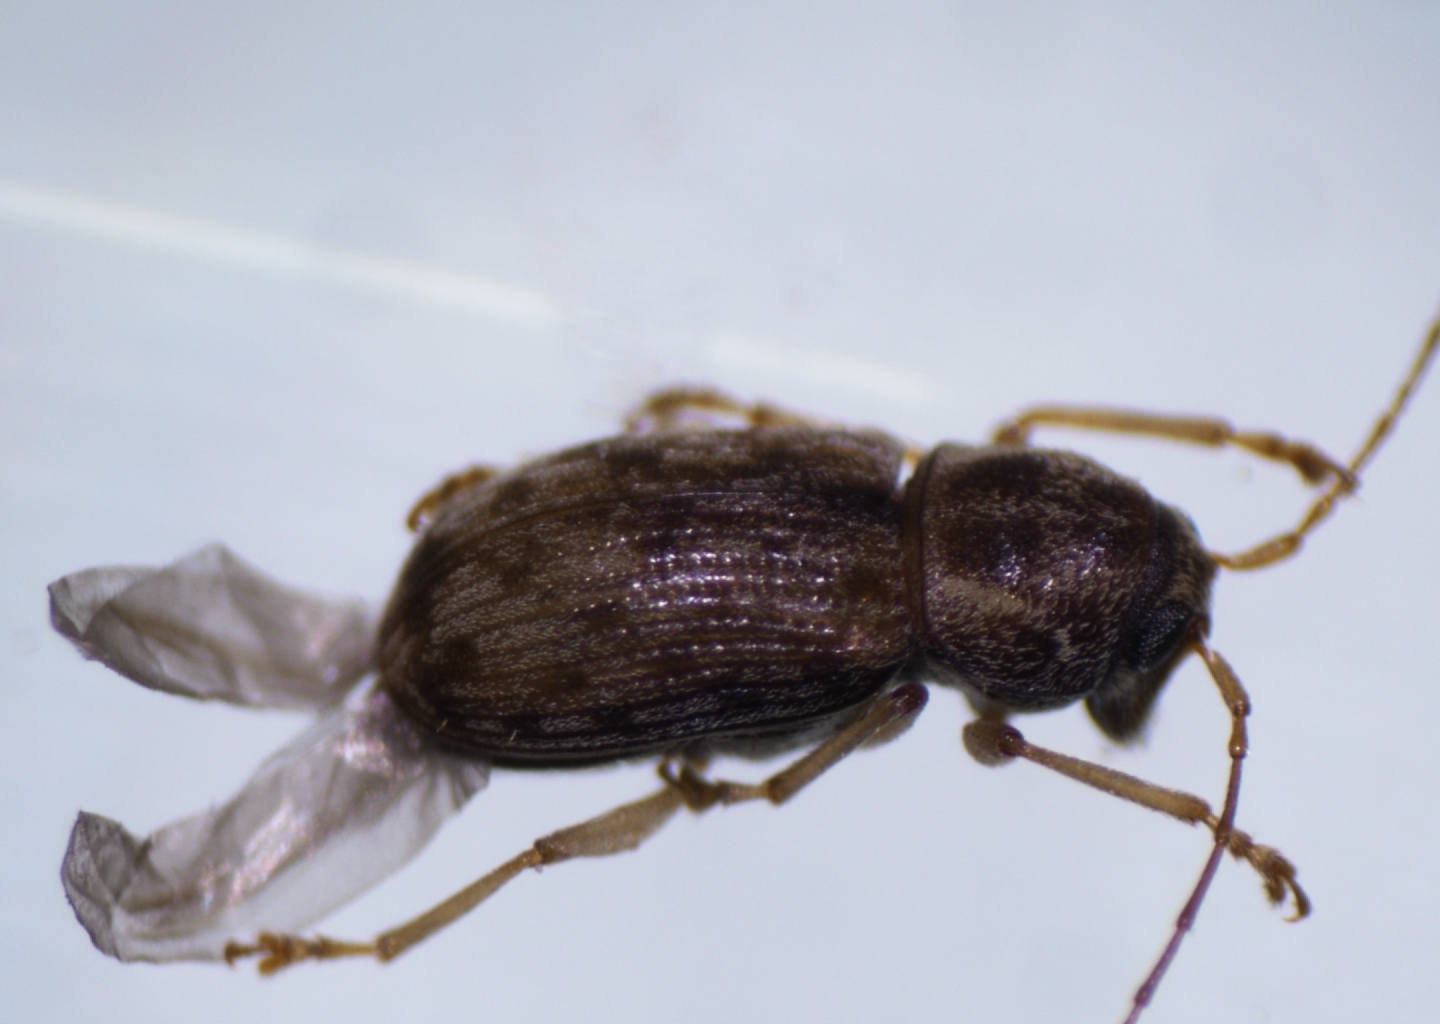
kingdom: Animalia
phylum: Arthropoda
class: Insecta
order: Coleoptera
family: Anthribidae
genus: Dinema
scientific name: Dinema filicornis
